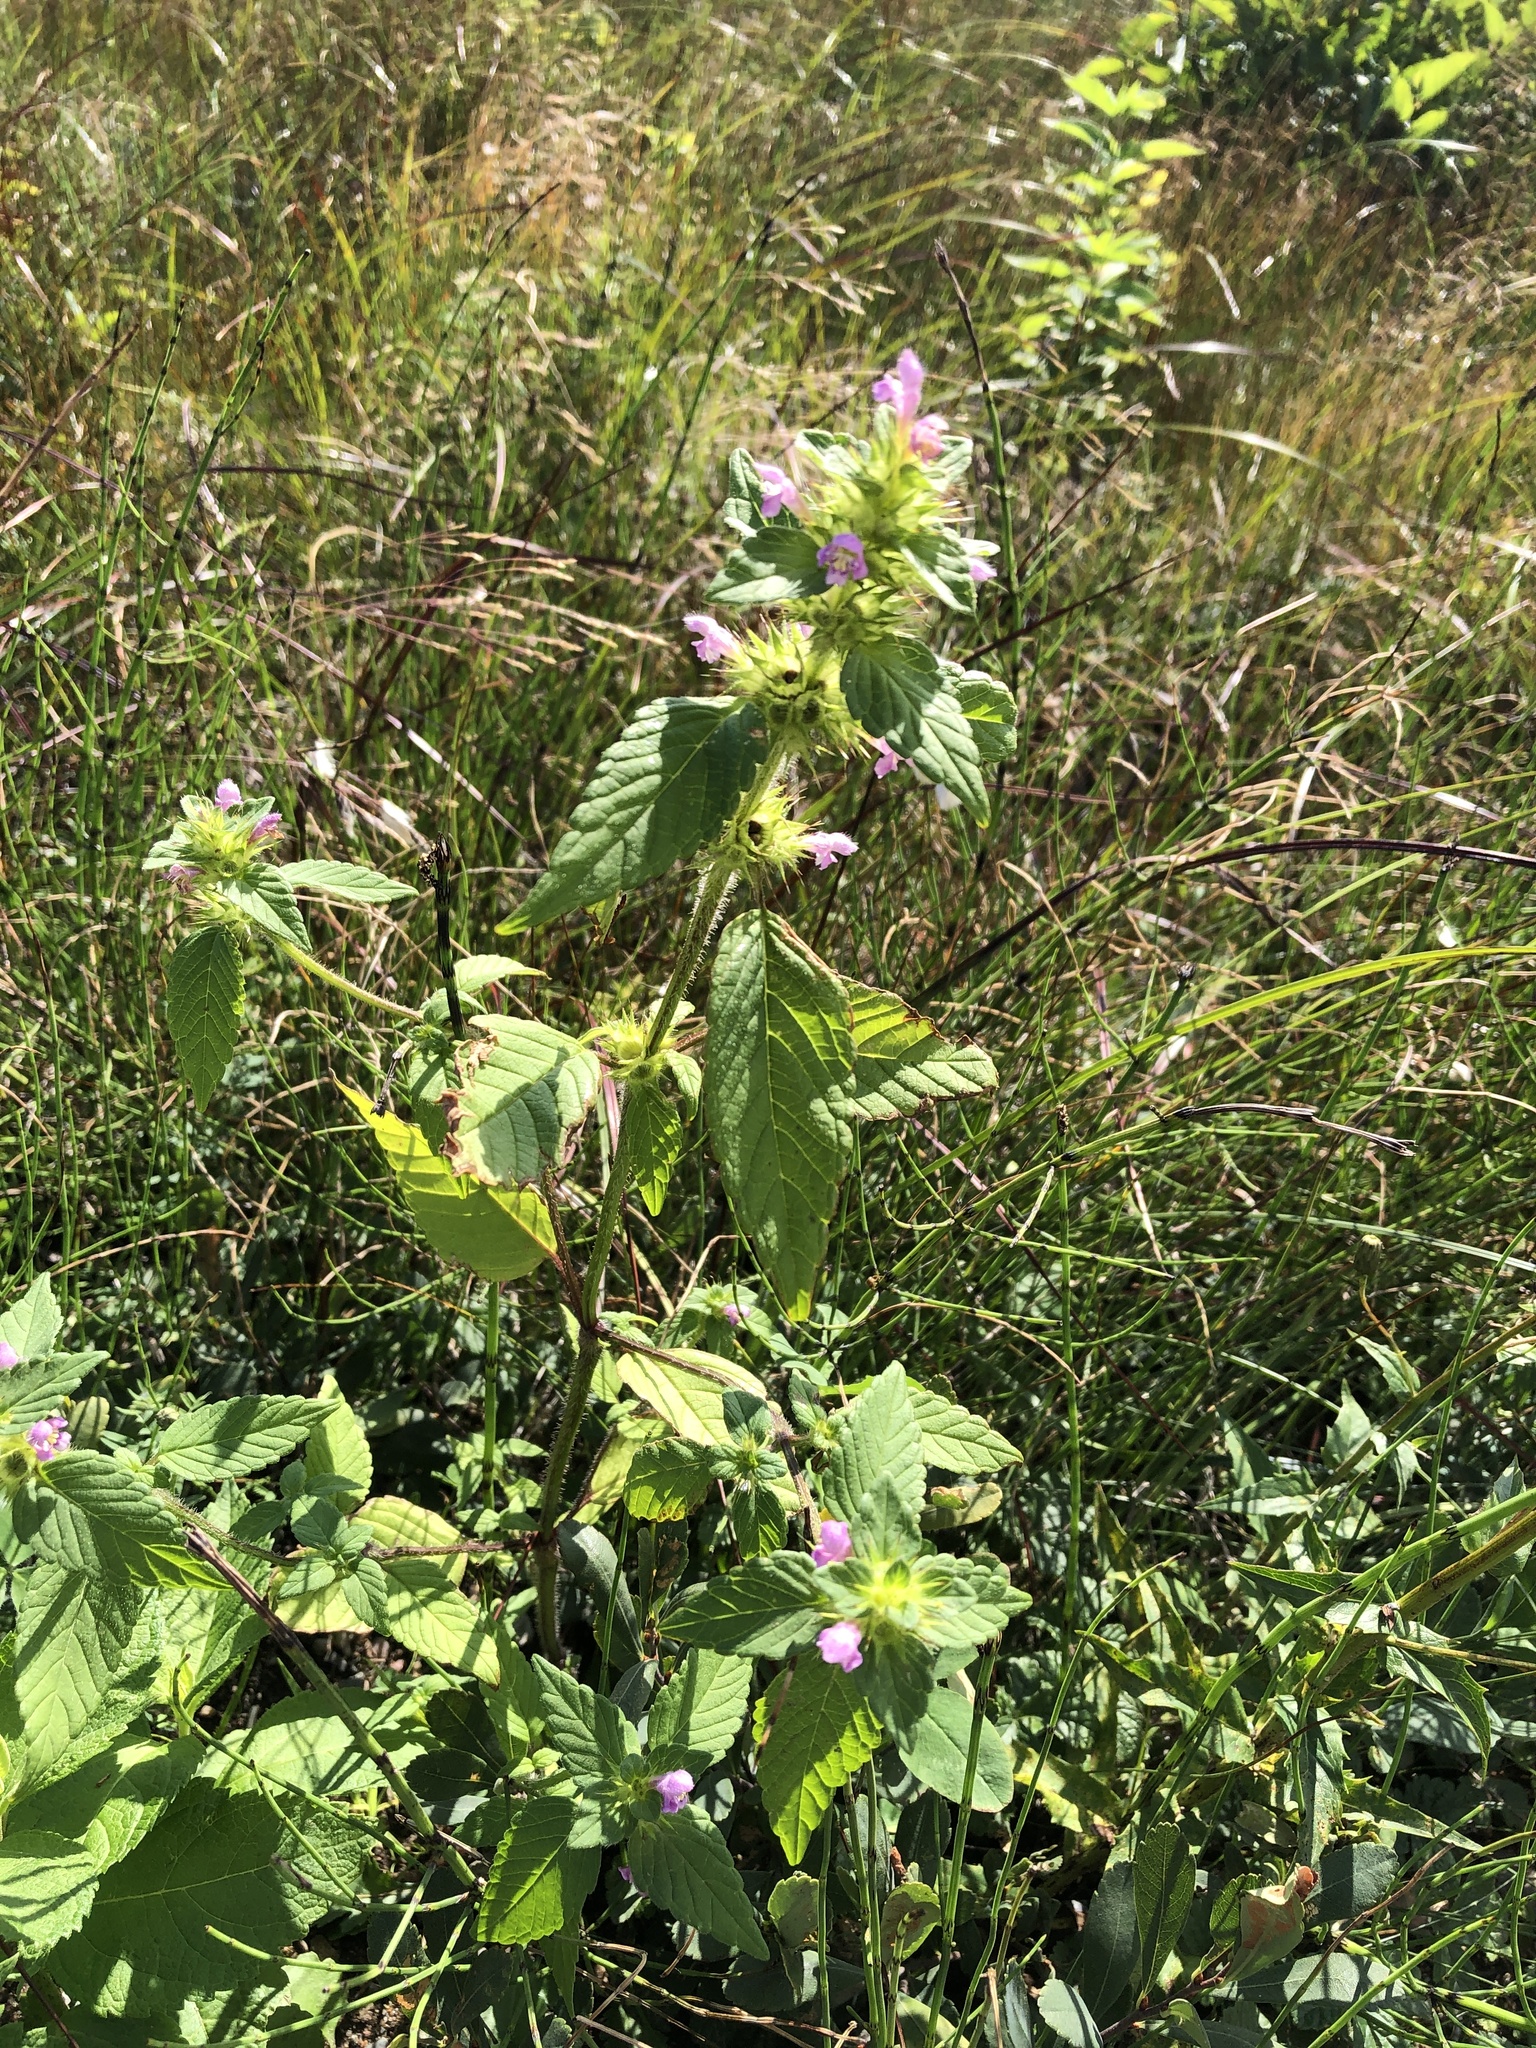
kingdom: Plantae
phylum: Tracheophyta
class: Magnoliopsida
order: Lamiales
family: Lamiaceae
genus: Galeopsis
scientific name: Galeopsis bifida
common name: Bifid hemp-nettle
